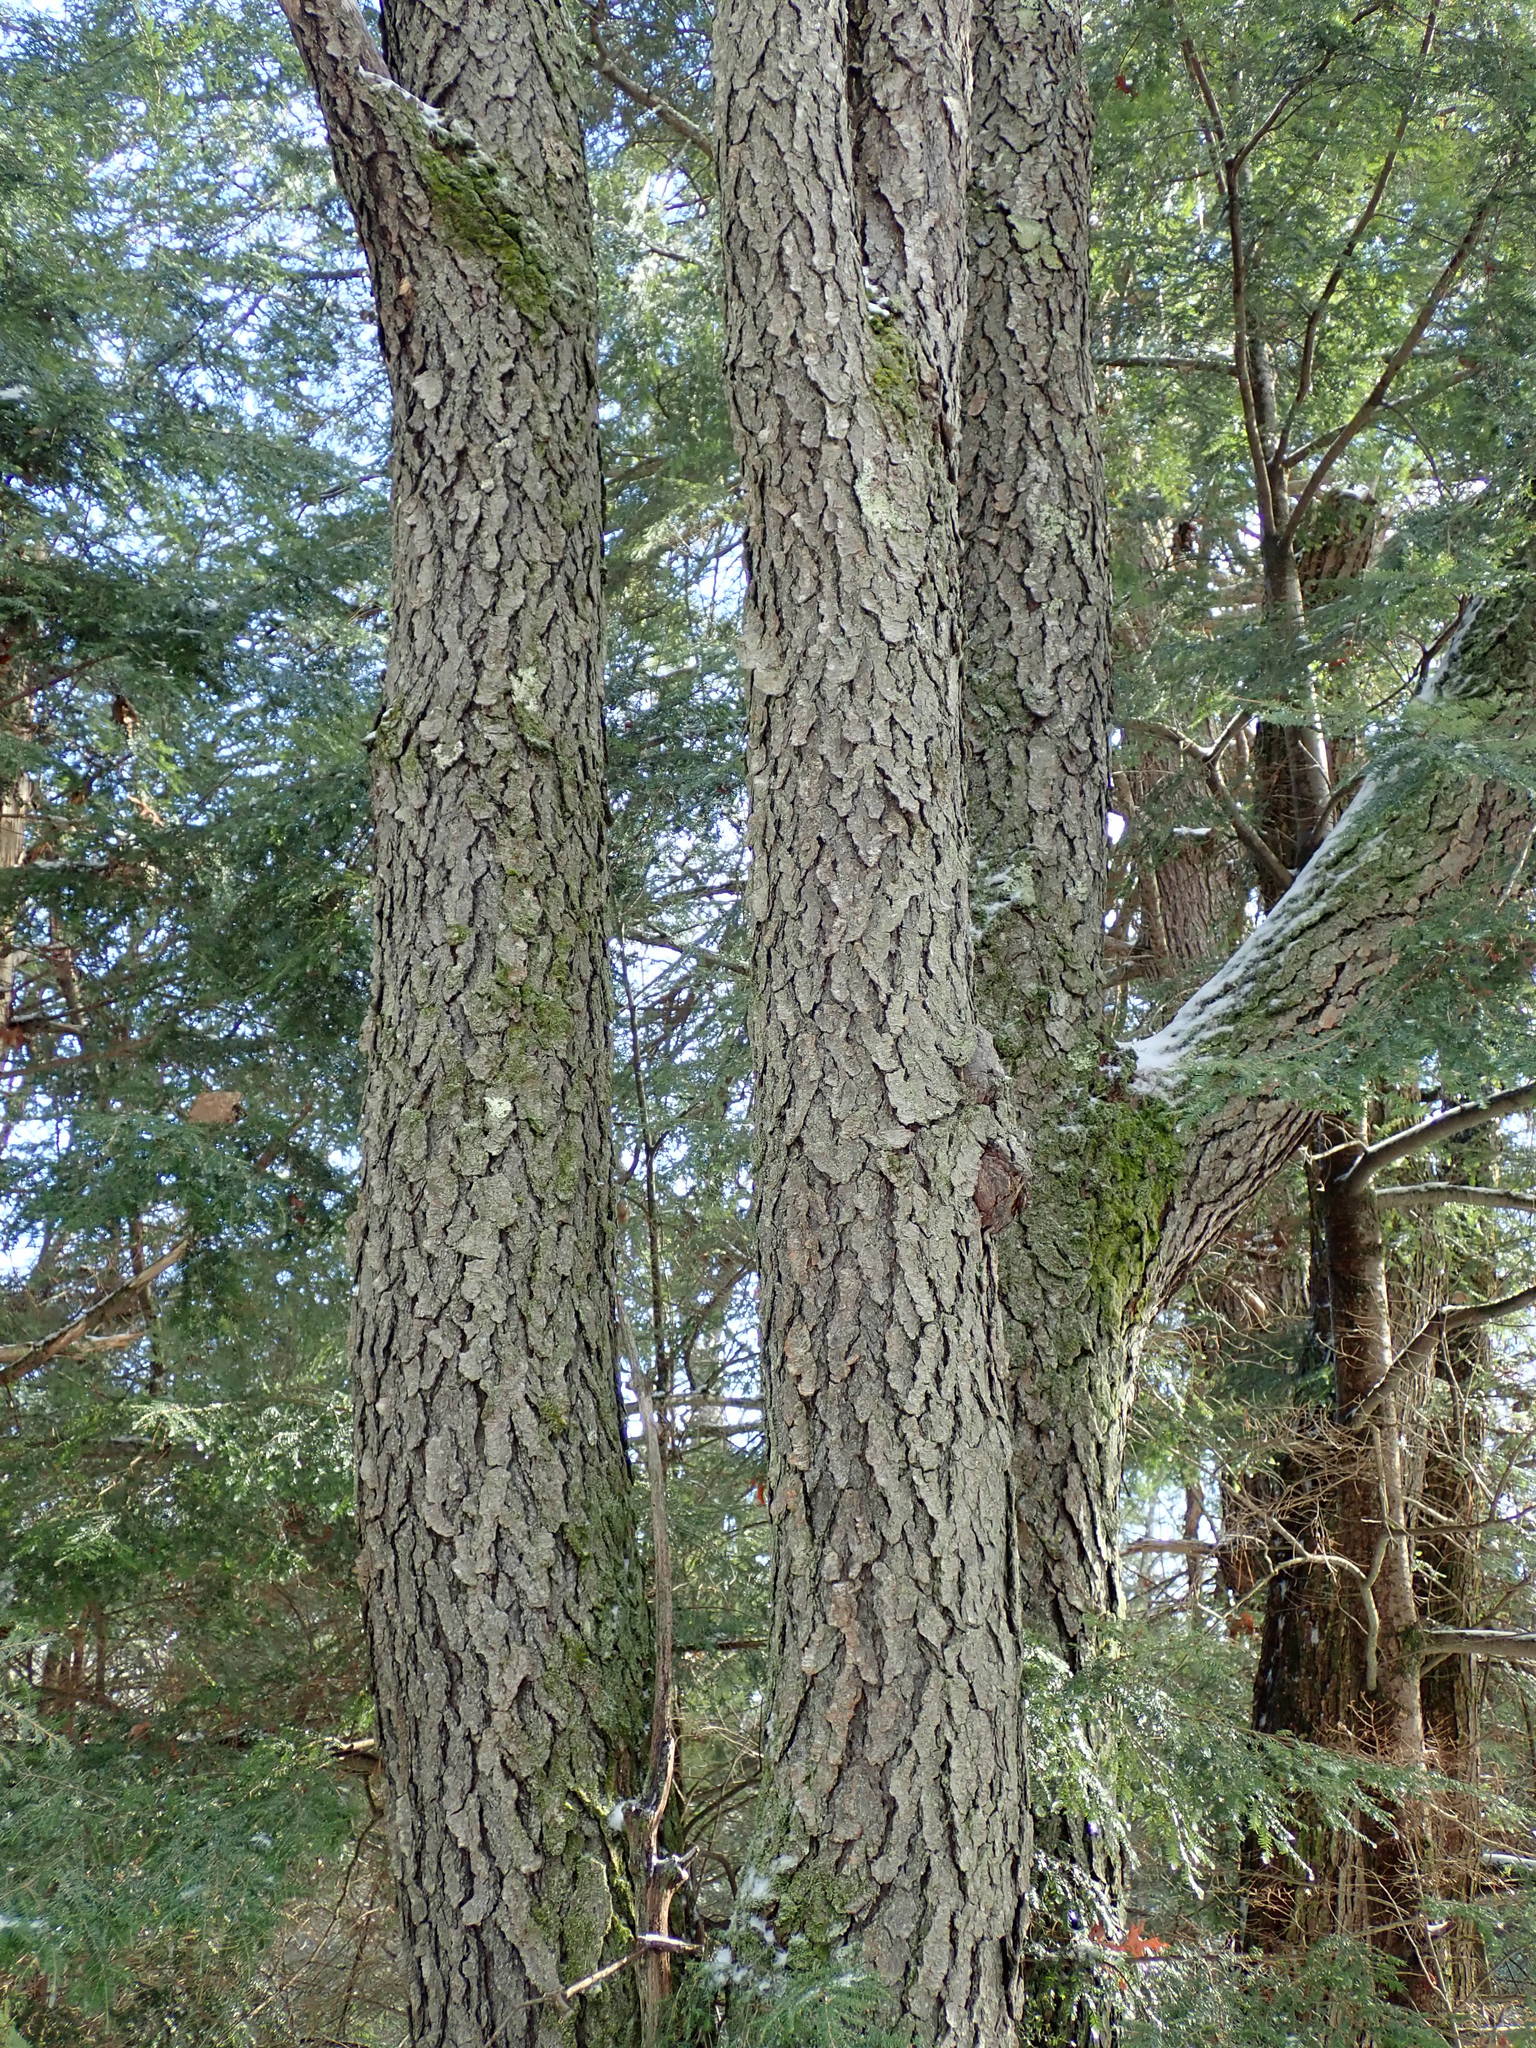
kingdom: Plantae
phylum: Tracheophyta
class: Magnoliopsida
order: Rosales
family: Rosaceae
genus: Prunus
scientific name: Prunus serotina
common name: Black cherry
